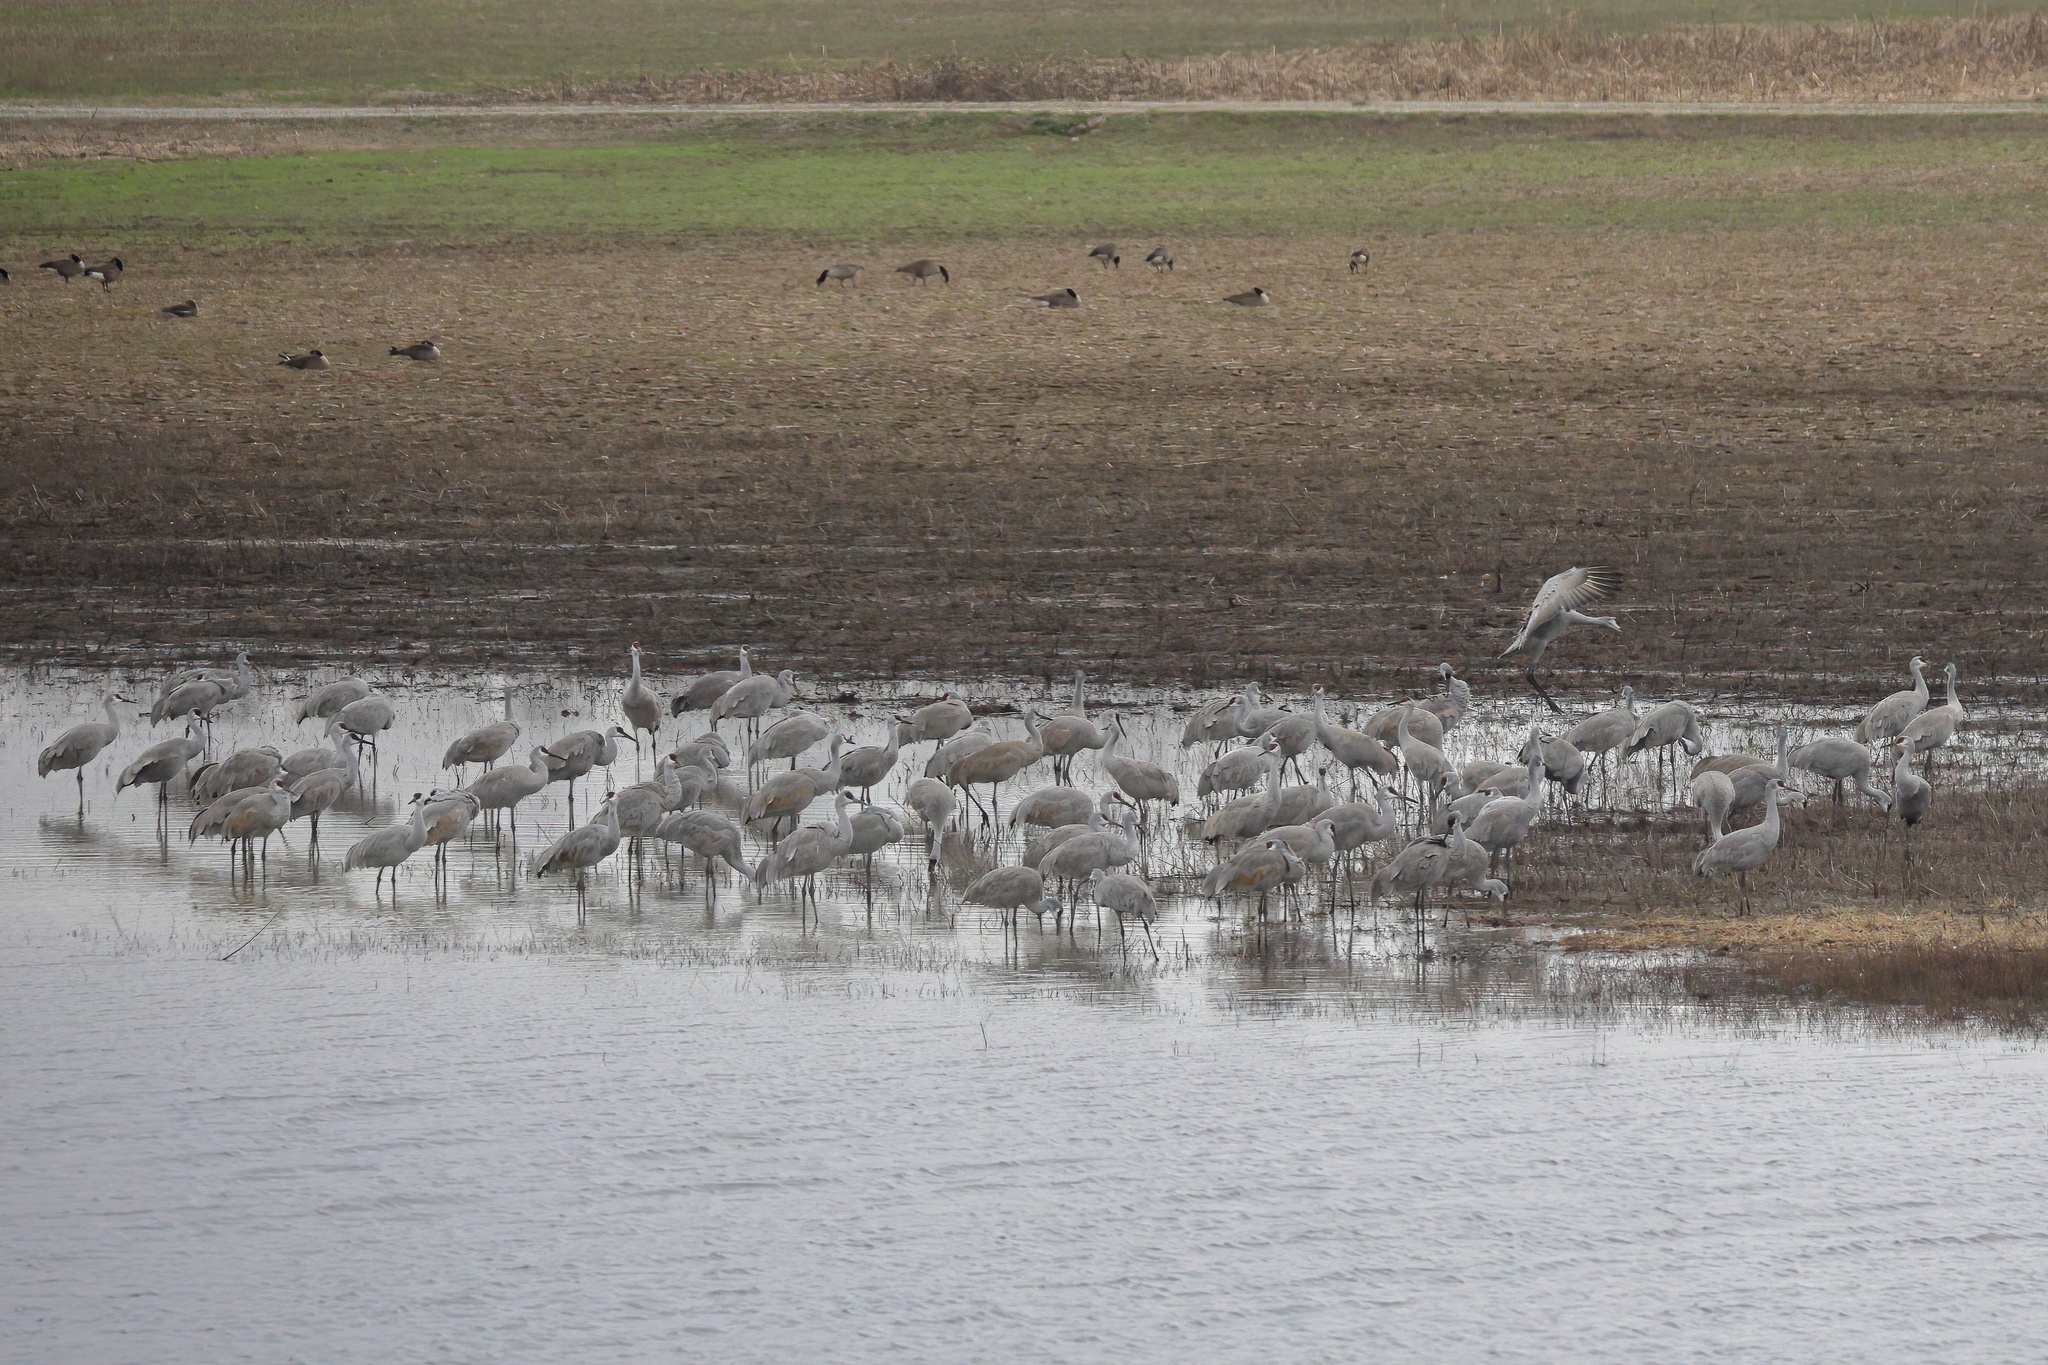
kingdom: Animalia
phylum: Chordata
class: Aves
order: Gruiformes
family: Gruidae
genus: Grus
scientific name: Grus canadensis
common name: Sandhill crane
